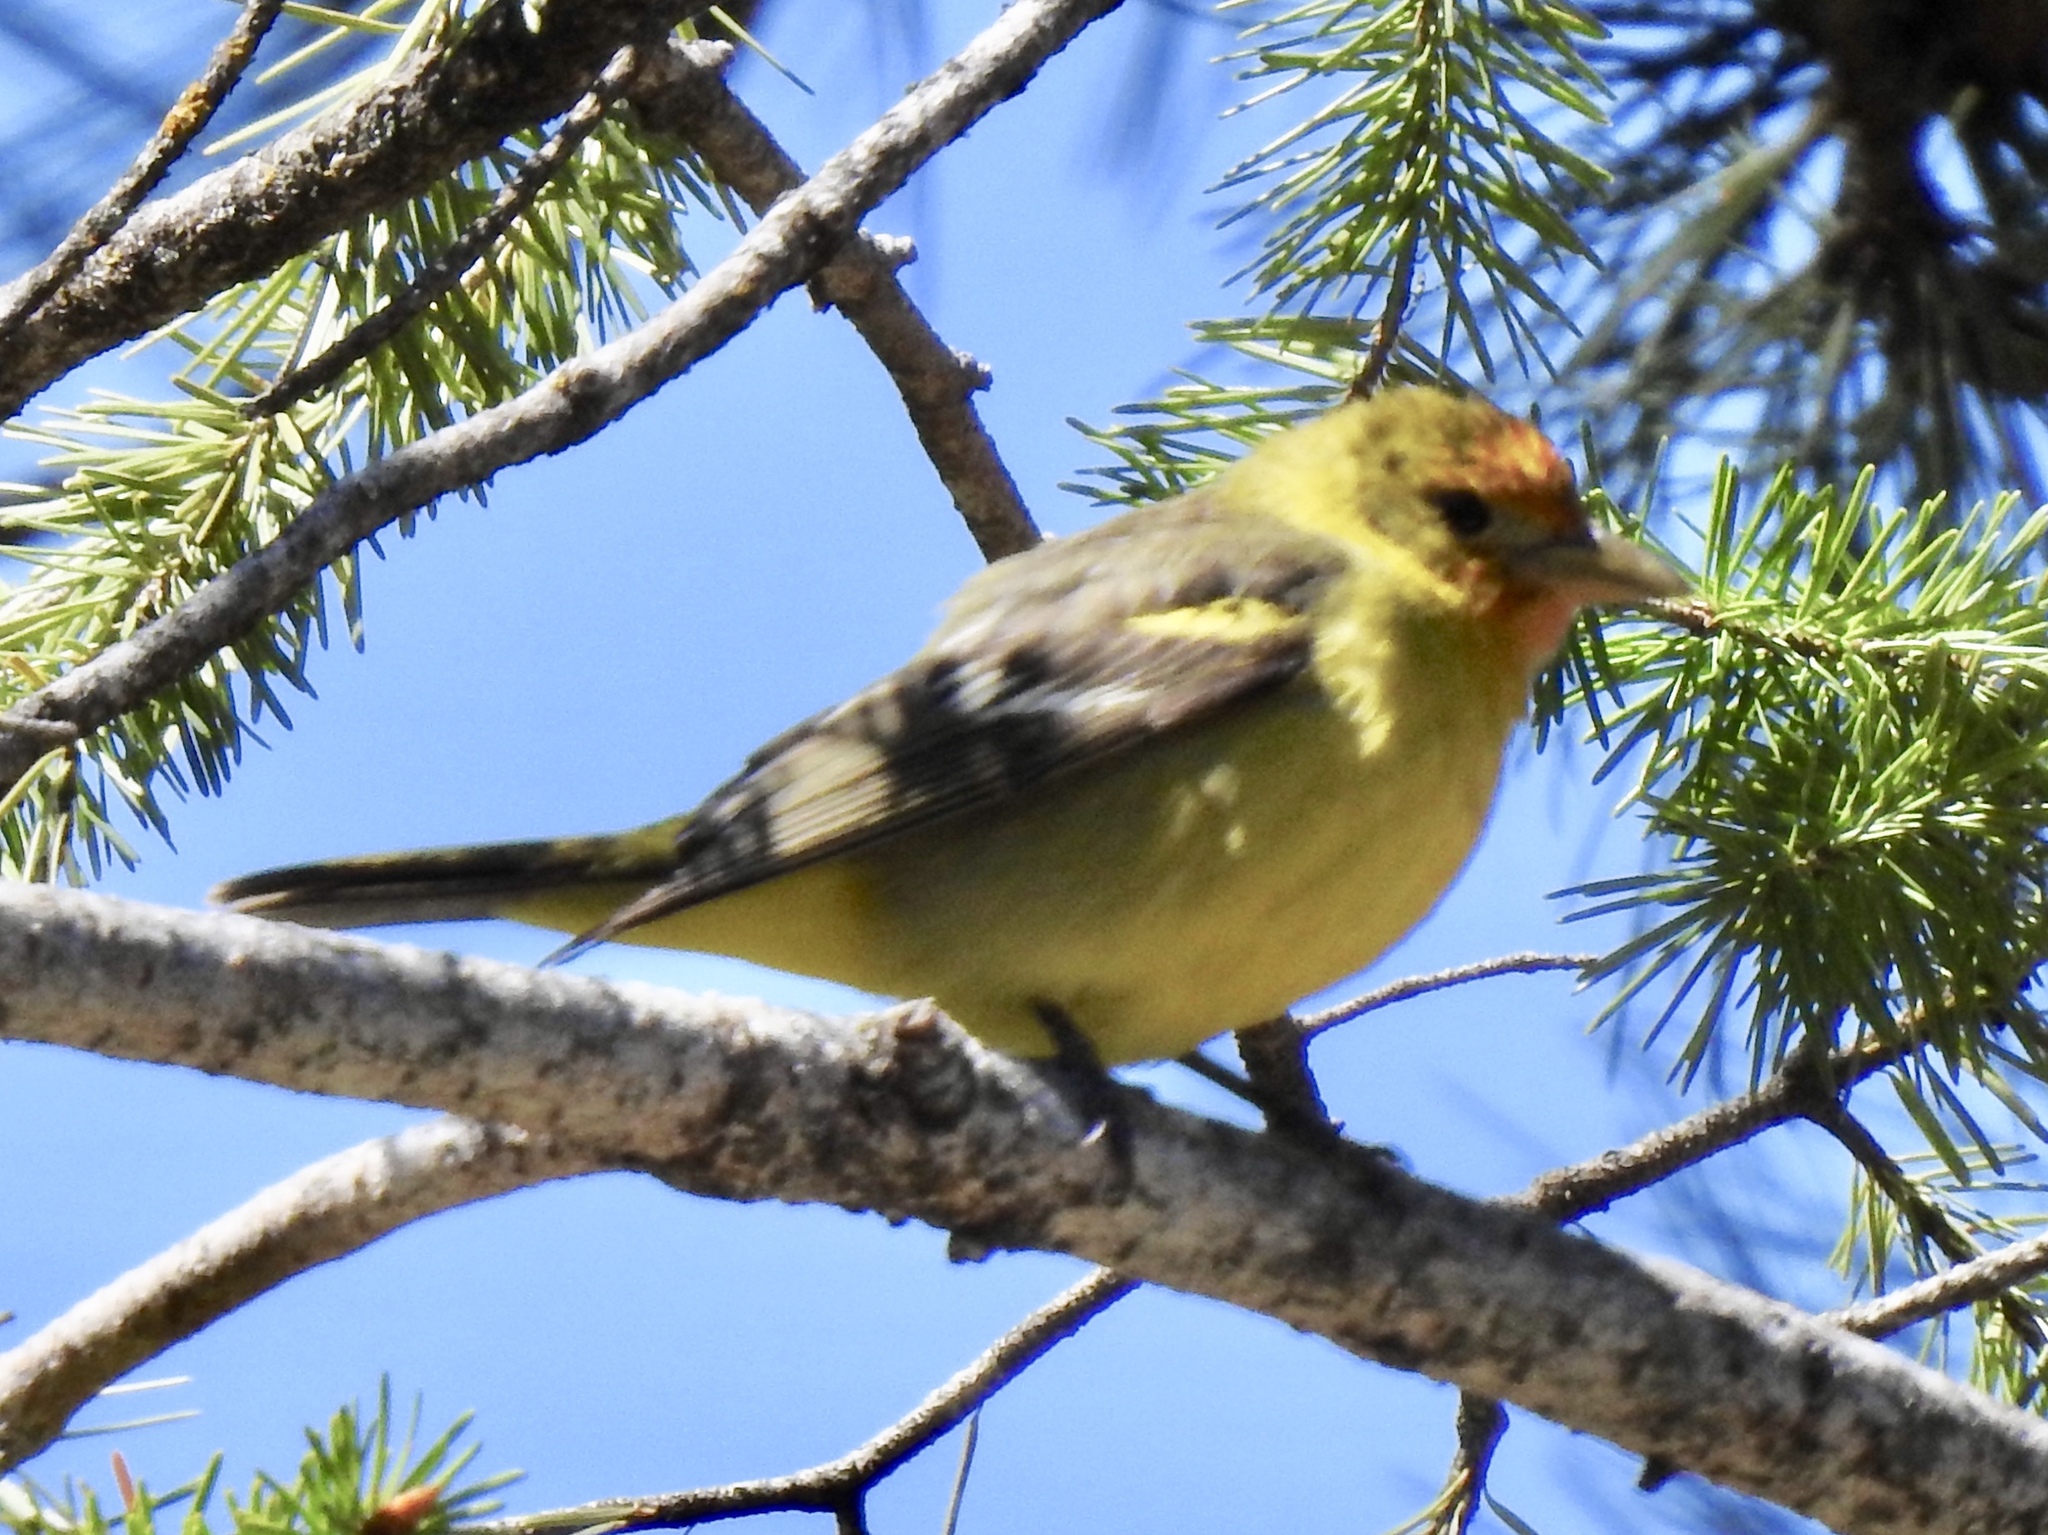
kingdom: Animalia
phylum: Chordata
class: Aves
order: Passeriformes
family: Cardinalidae
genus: Piranga
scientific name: Piranga ludoviciana
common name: Western tanager
